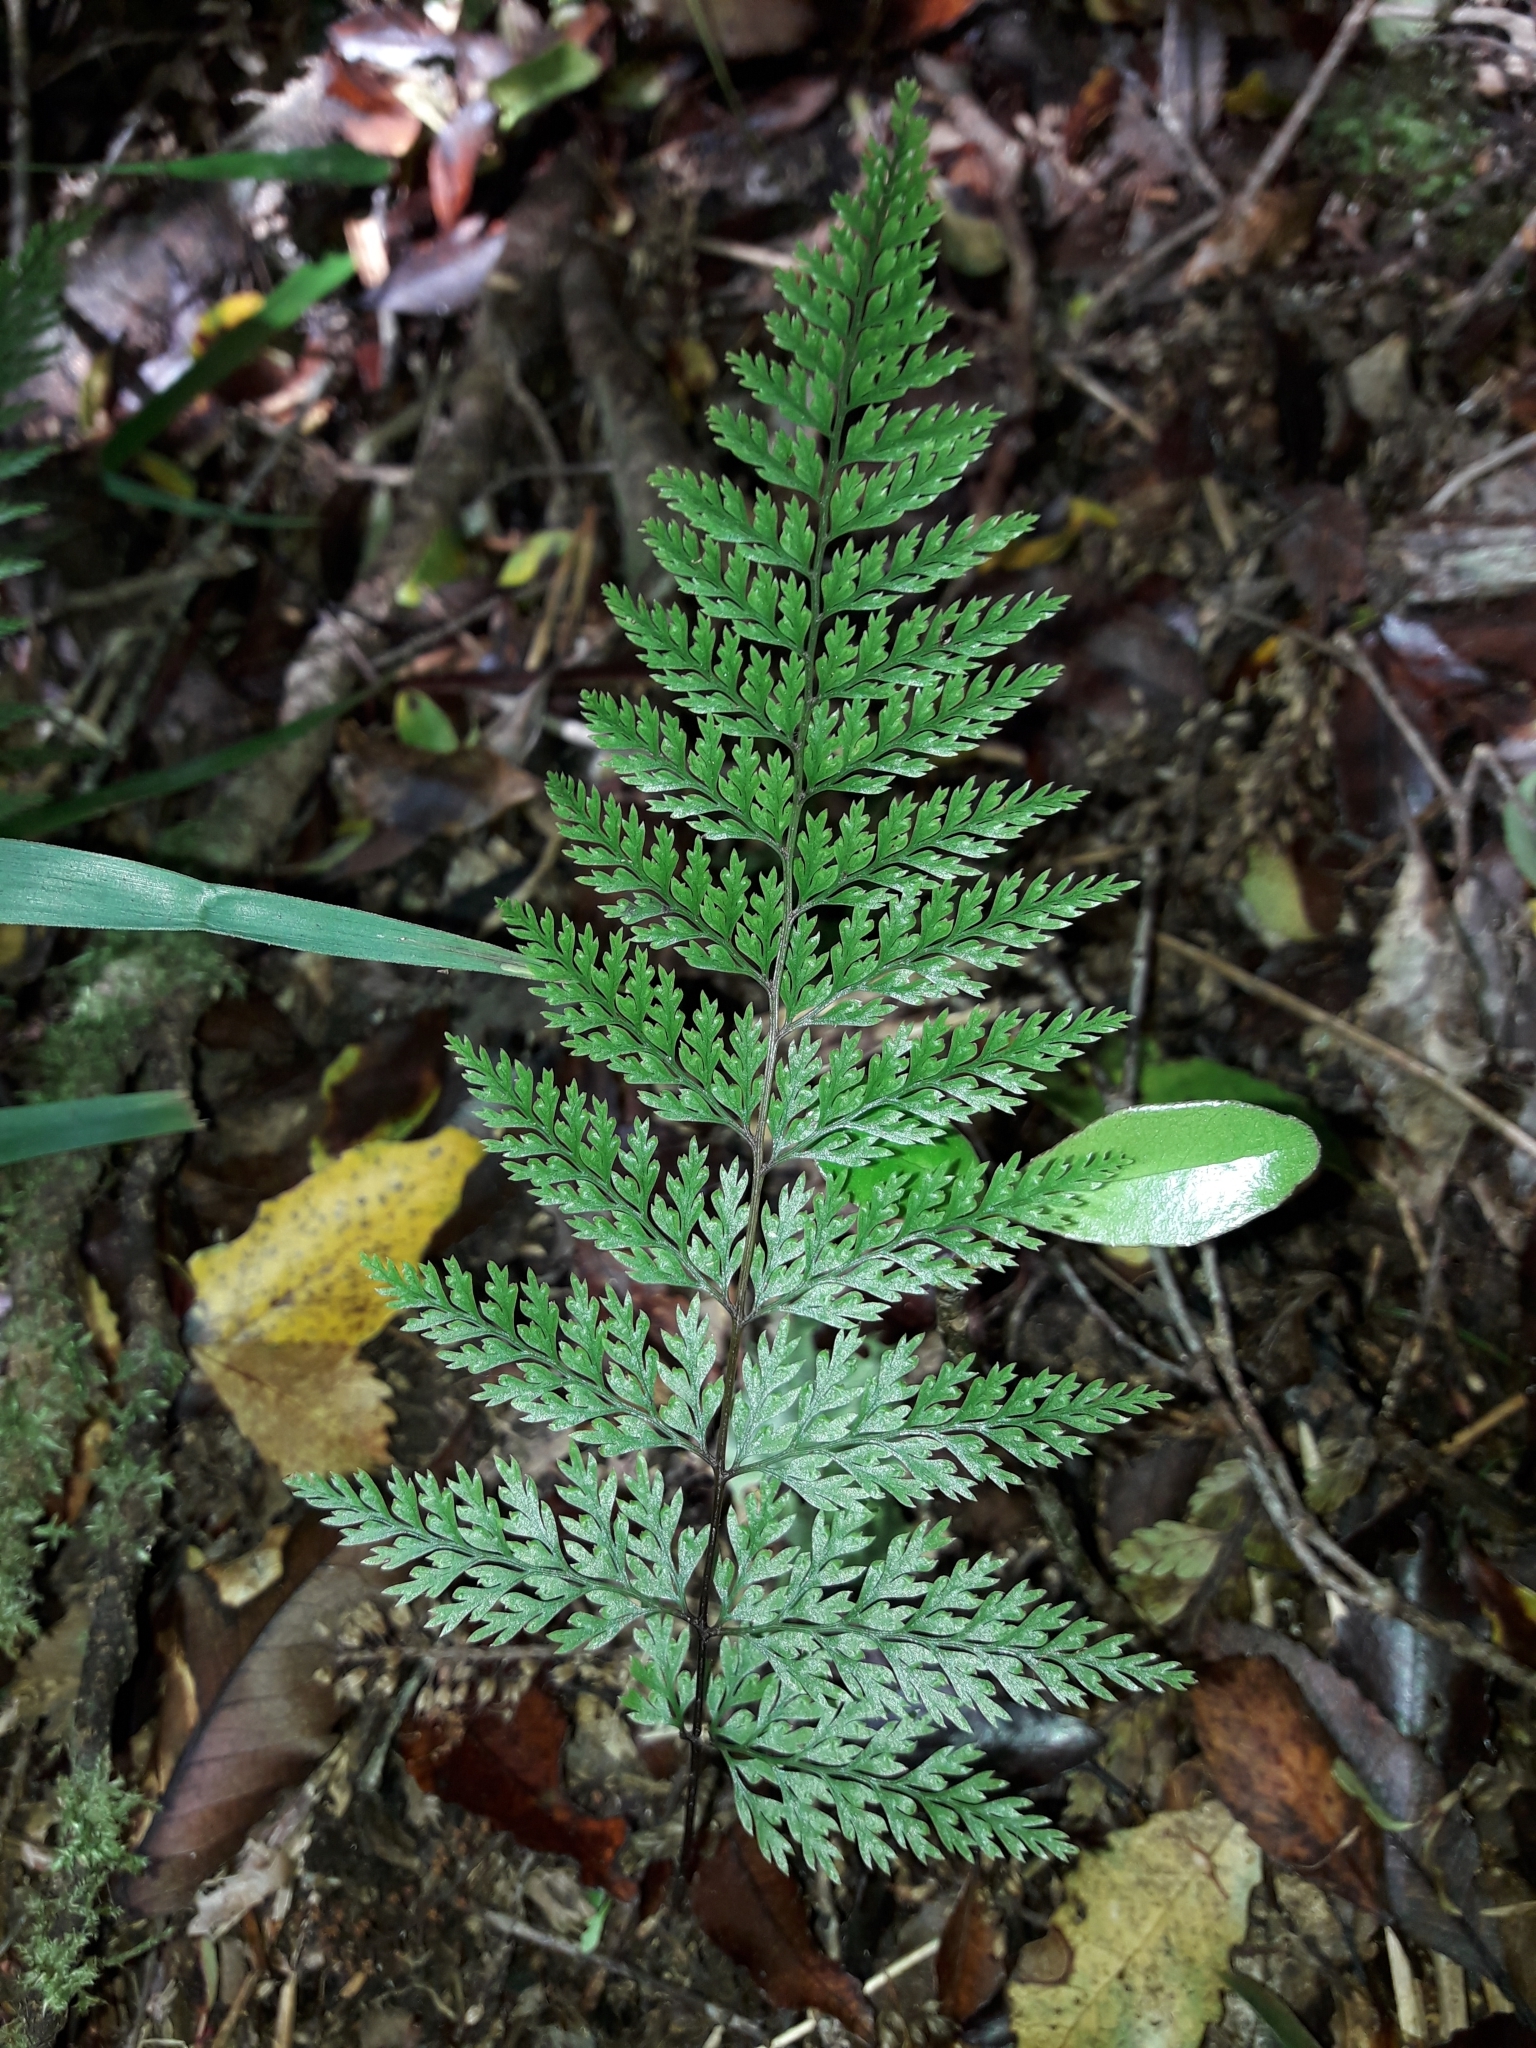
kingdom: Plantae
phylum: Tracheophyta
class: Polypodiopsida
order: Polypodiales
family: Dennstaedtiaceae
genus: Dennstaedtia
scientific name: Dennstaedtia novae-zelandiae
